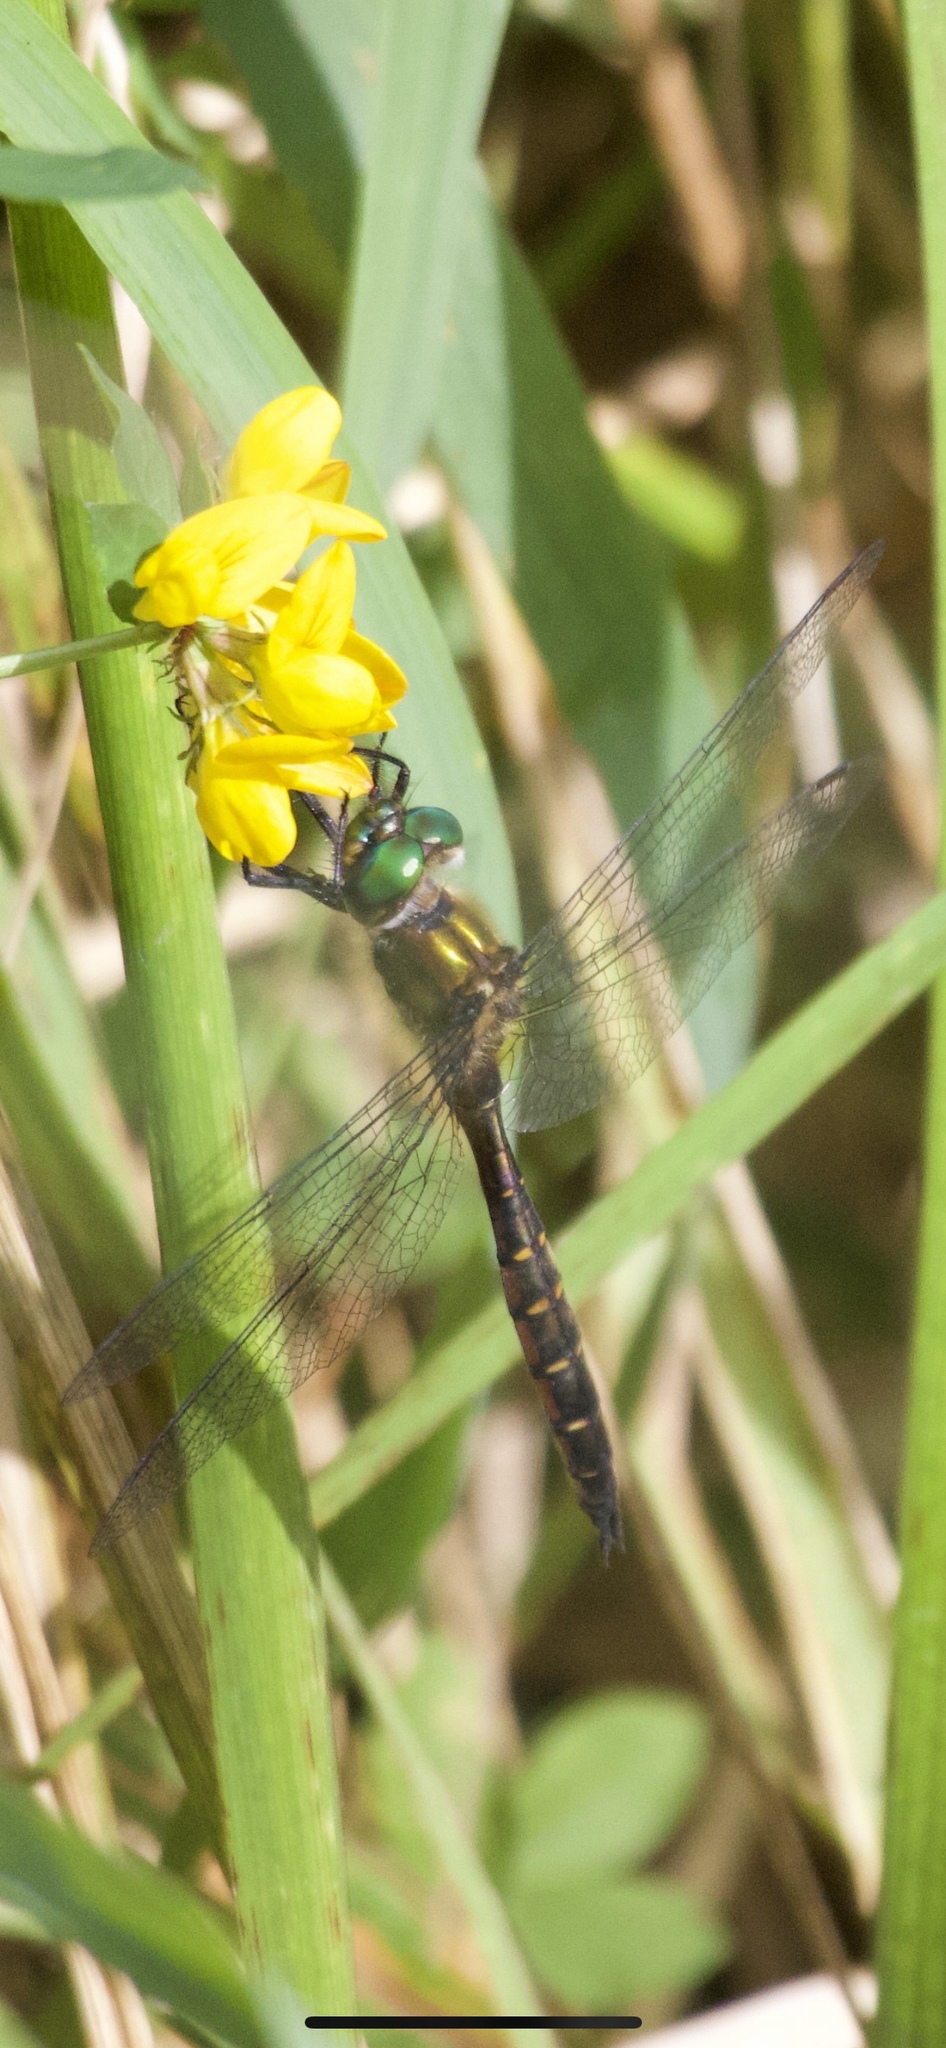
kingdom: Animalia
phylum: Arthropoda
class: Insecta
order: Odonata
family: Corduliidae
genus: Procordulia
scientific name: Procordulia smithii
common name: Ranger dragonfly
